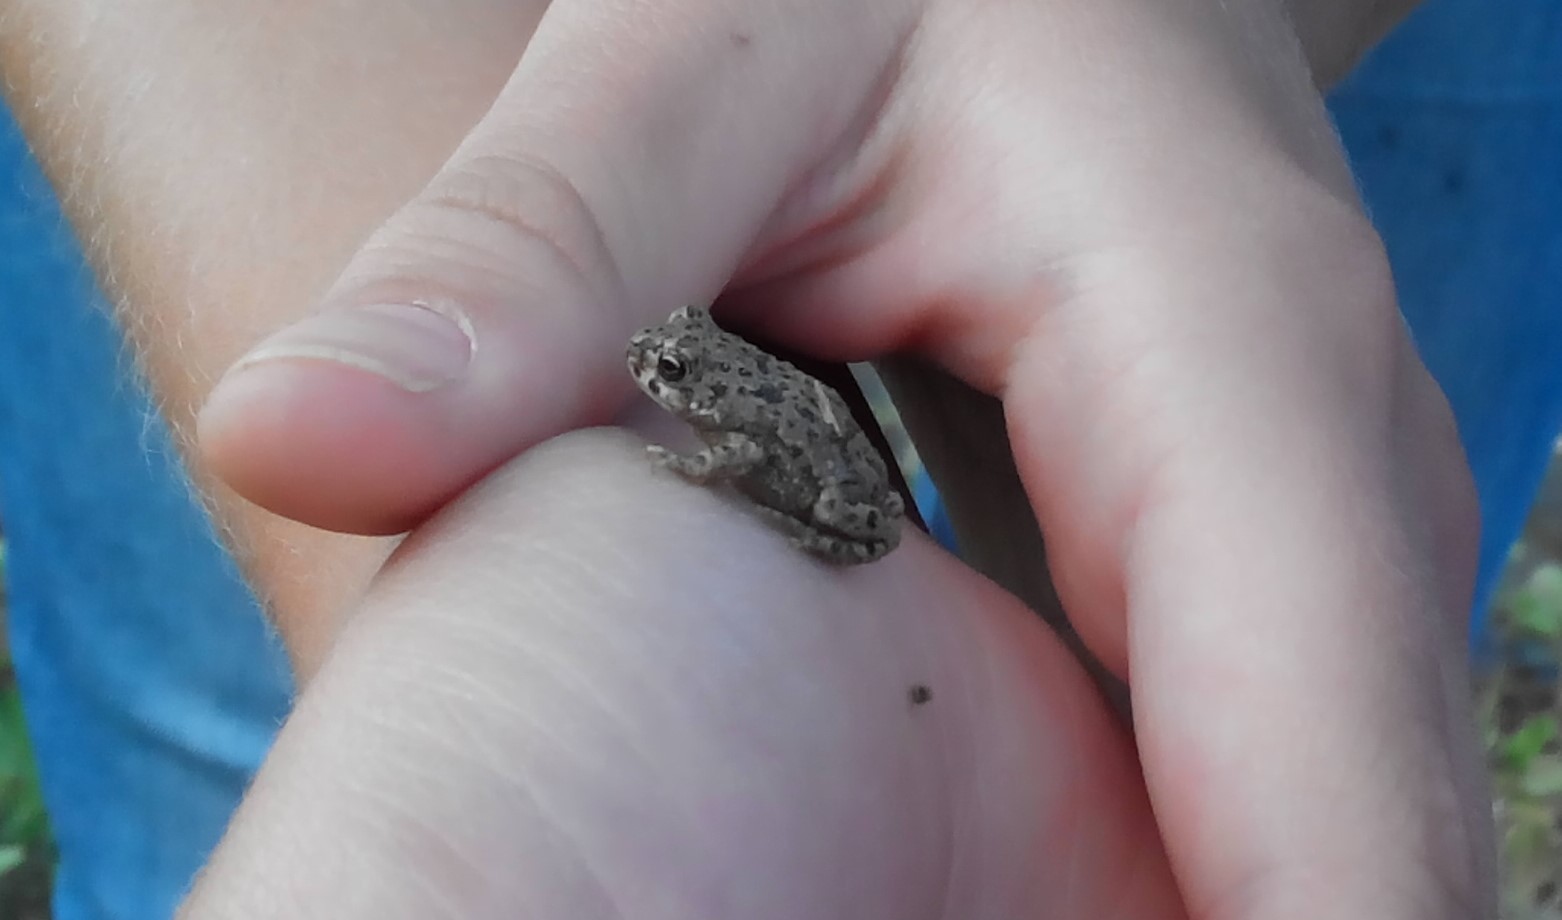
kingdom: Animalia
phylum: Chordata
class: Amphibia
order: Anura
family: Bufonidae
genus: Bufotes
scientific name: Bufotes viridis
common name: European green toad
